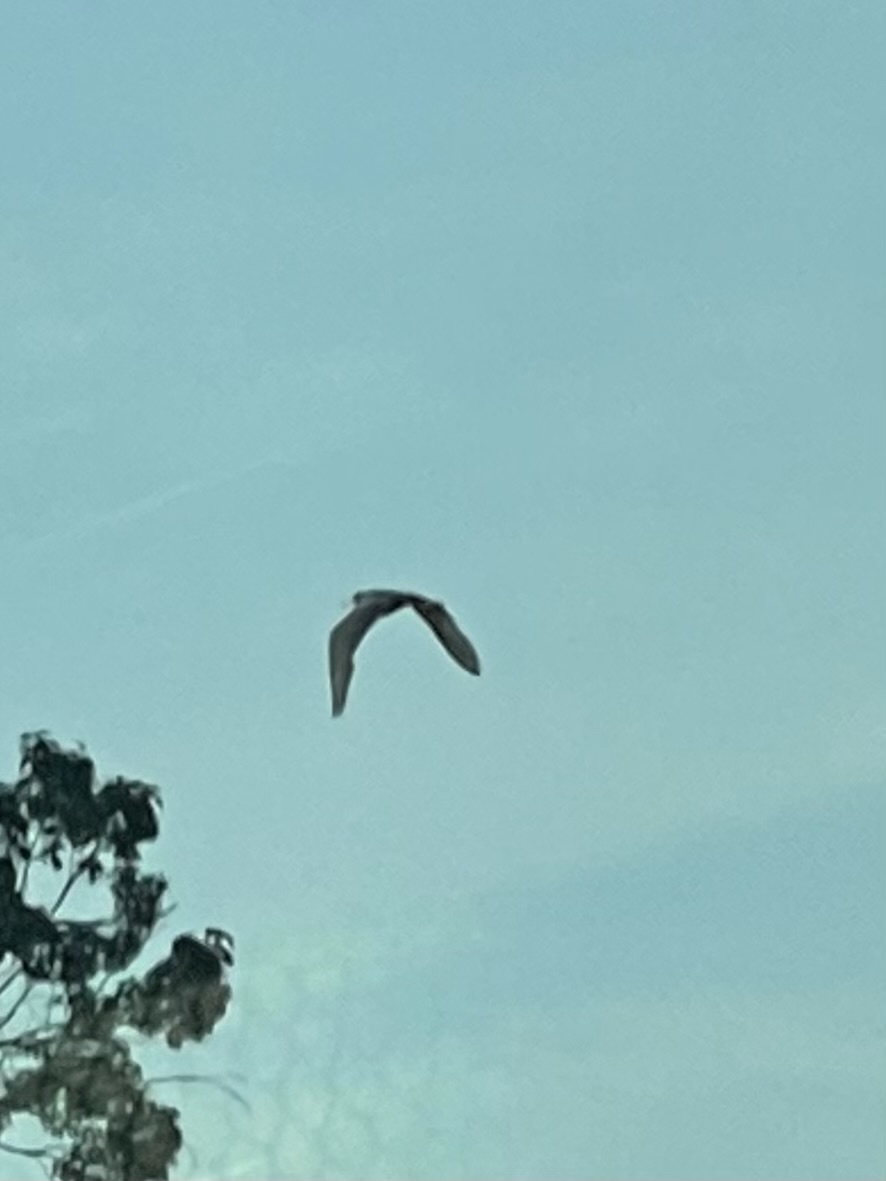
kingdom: Animalia
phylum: Chordata
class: Aves
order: Pelecaniformes
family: Ardeidae
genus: Ardea
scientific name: Ardea herodias
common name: Great blue heron
